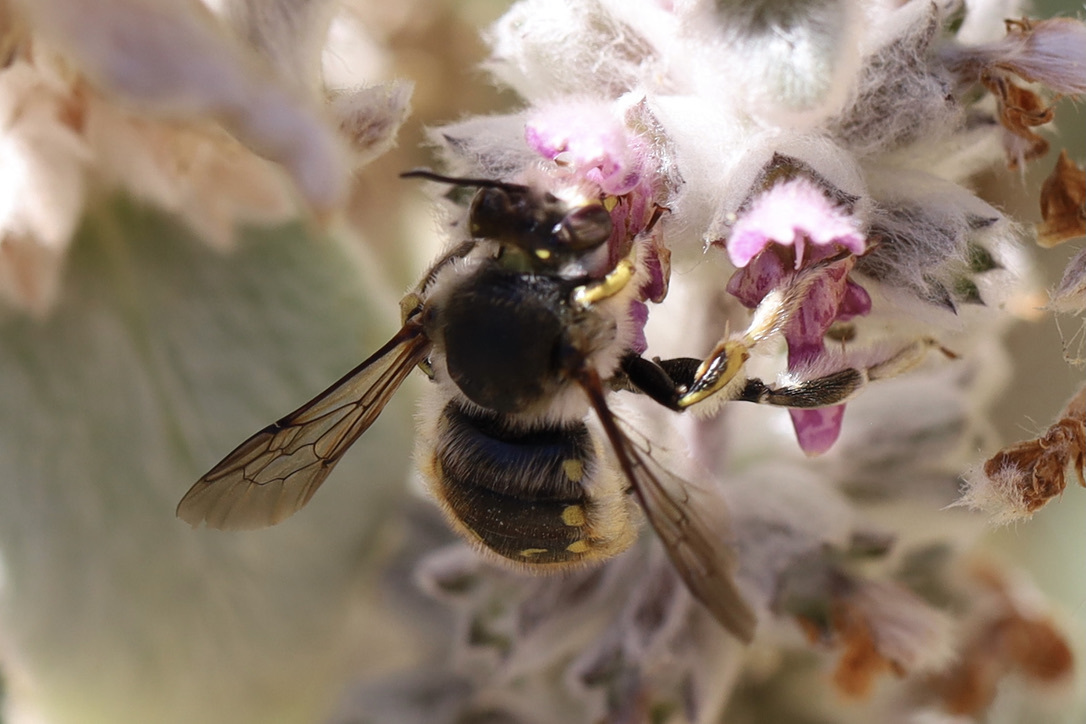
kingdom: Animalia
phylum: Arthropoda
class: Insecta
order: Hymenoptera
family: Megachilidae
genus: Anthidium
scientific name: Anthidium manicatum
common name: Wool carder bee
